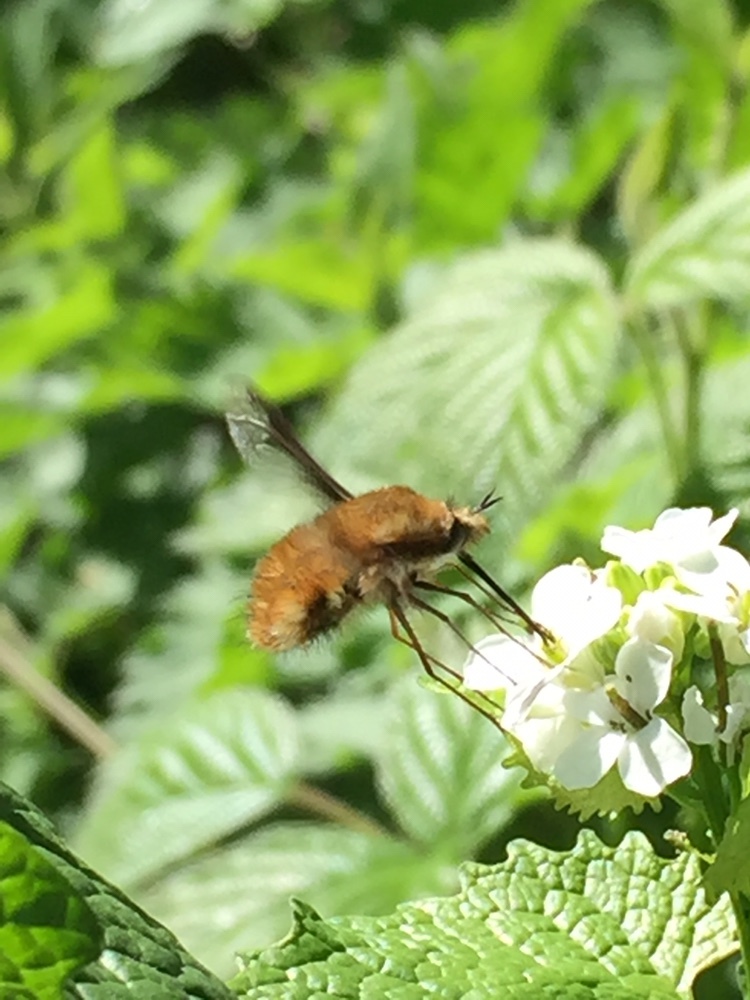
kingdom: Animalia
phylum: Arthropoda
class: Insecta
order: Diptera
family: Bombyliidae
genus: Bombylius
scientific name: Bombylius major
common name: Bee fly
